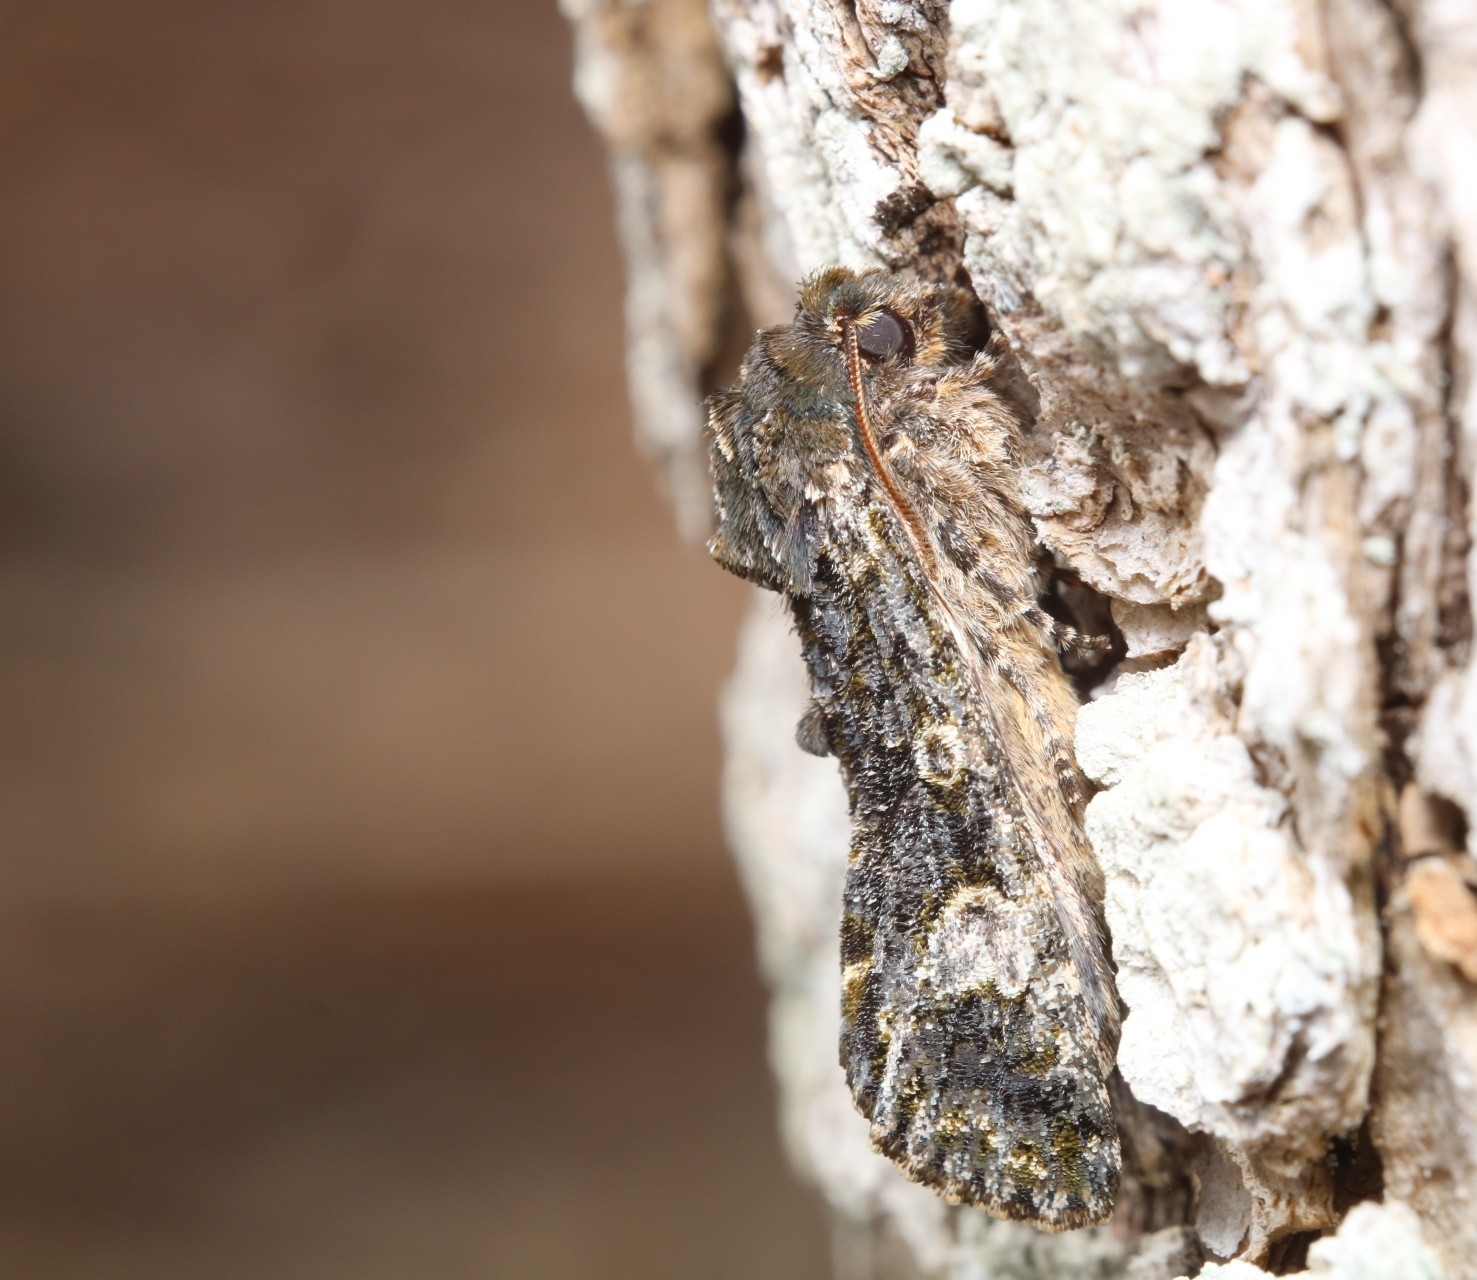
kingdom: Animalia
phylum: Arthropoda
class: Insecta
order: Lepidoptera
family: Noctuidae
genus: Psaphida
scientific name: Psaphida grotei
